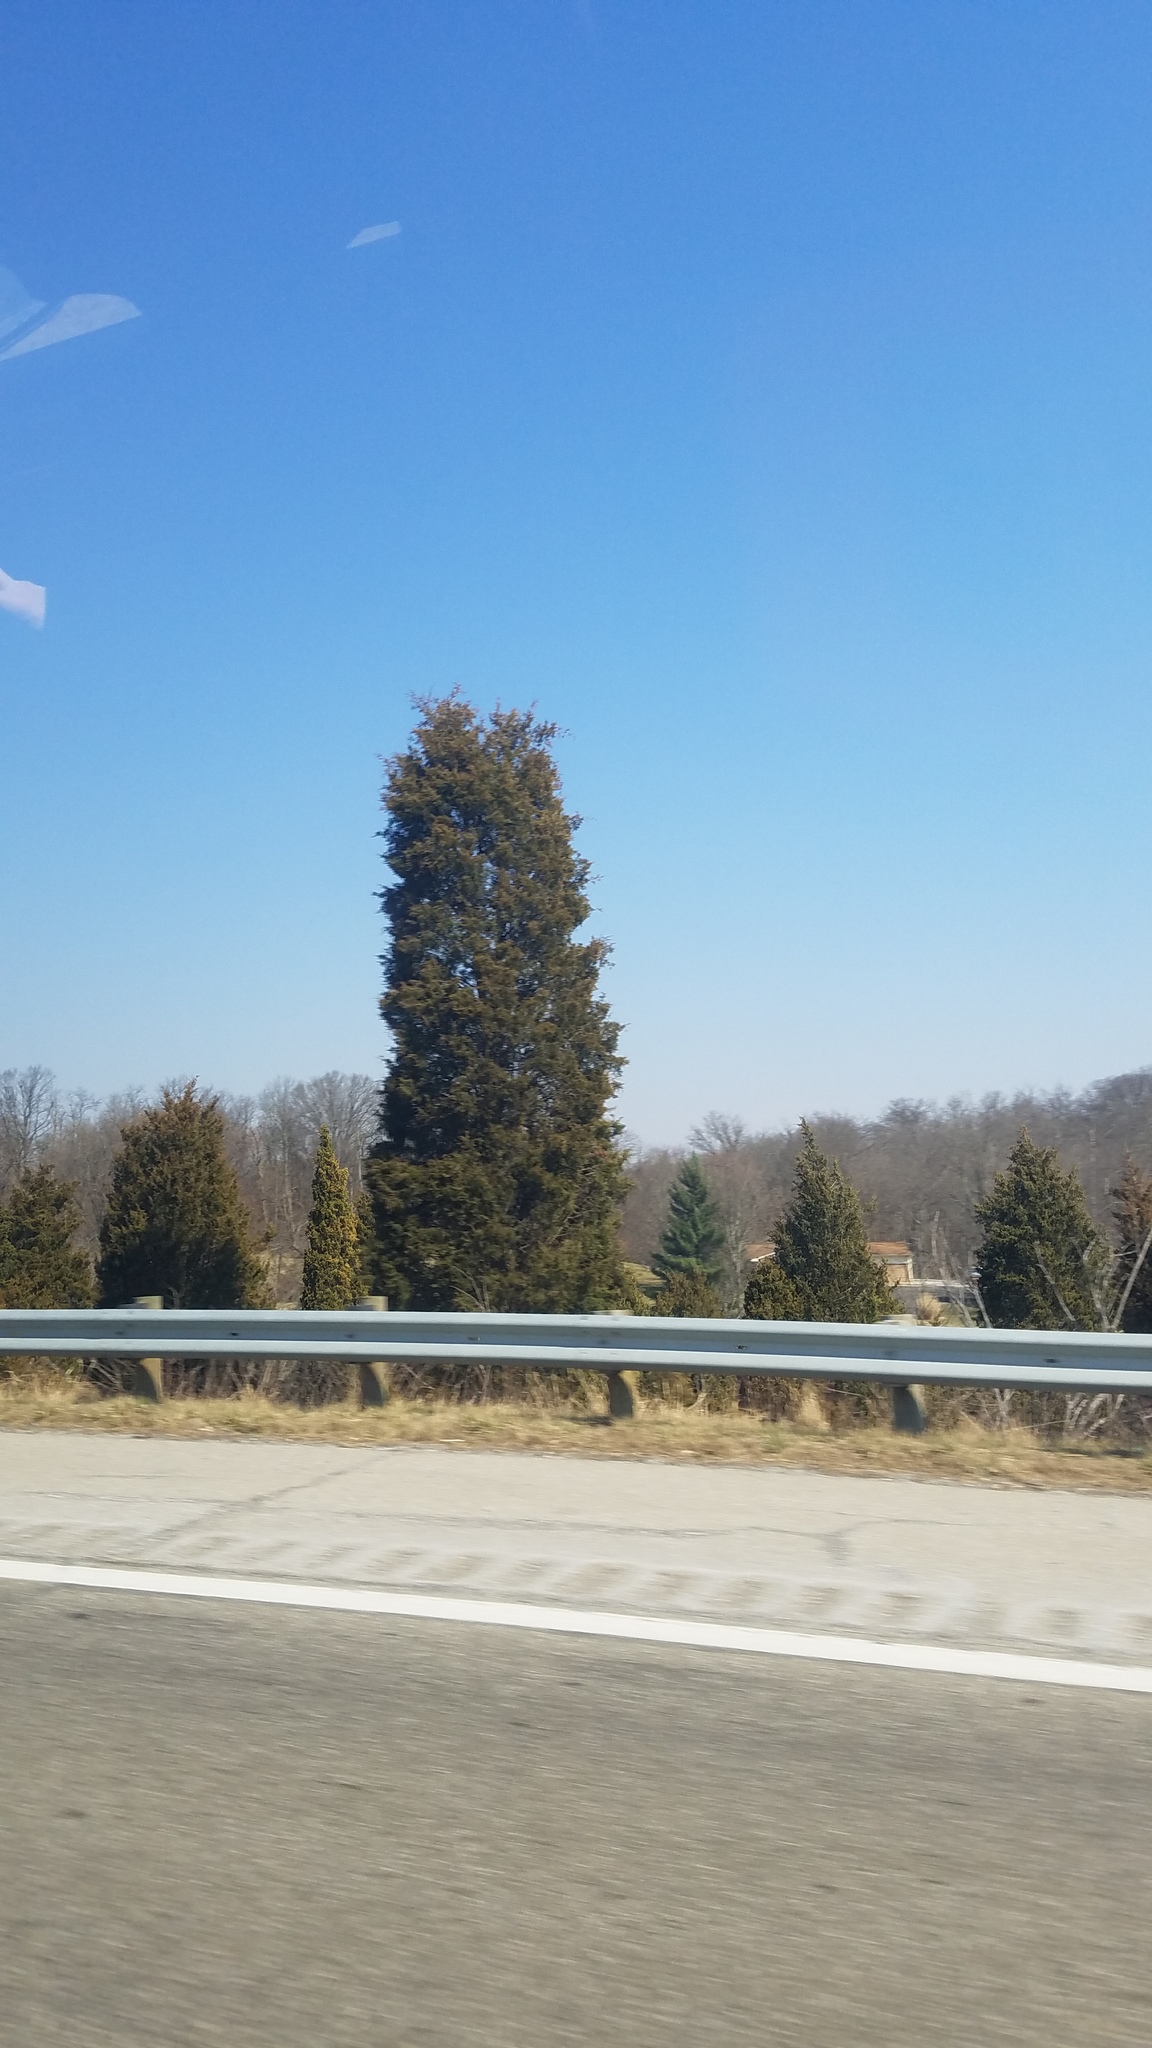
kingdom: Plantae
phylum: Tracheophyta
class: Pinopsida
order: Pinales
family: Cupressaceae
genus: Juniperus
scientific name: Juniperus virginiana
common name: Red juniper
